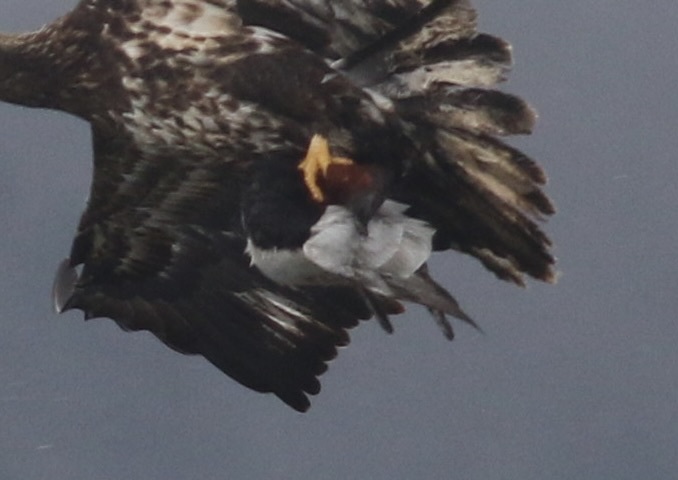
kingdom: Animalia
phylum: Chordata
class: Aves
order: Anseriformes
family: Anatidae
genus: Aythya
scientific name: Aythya valisineria
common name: Canvasback
